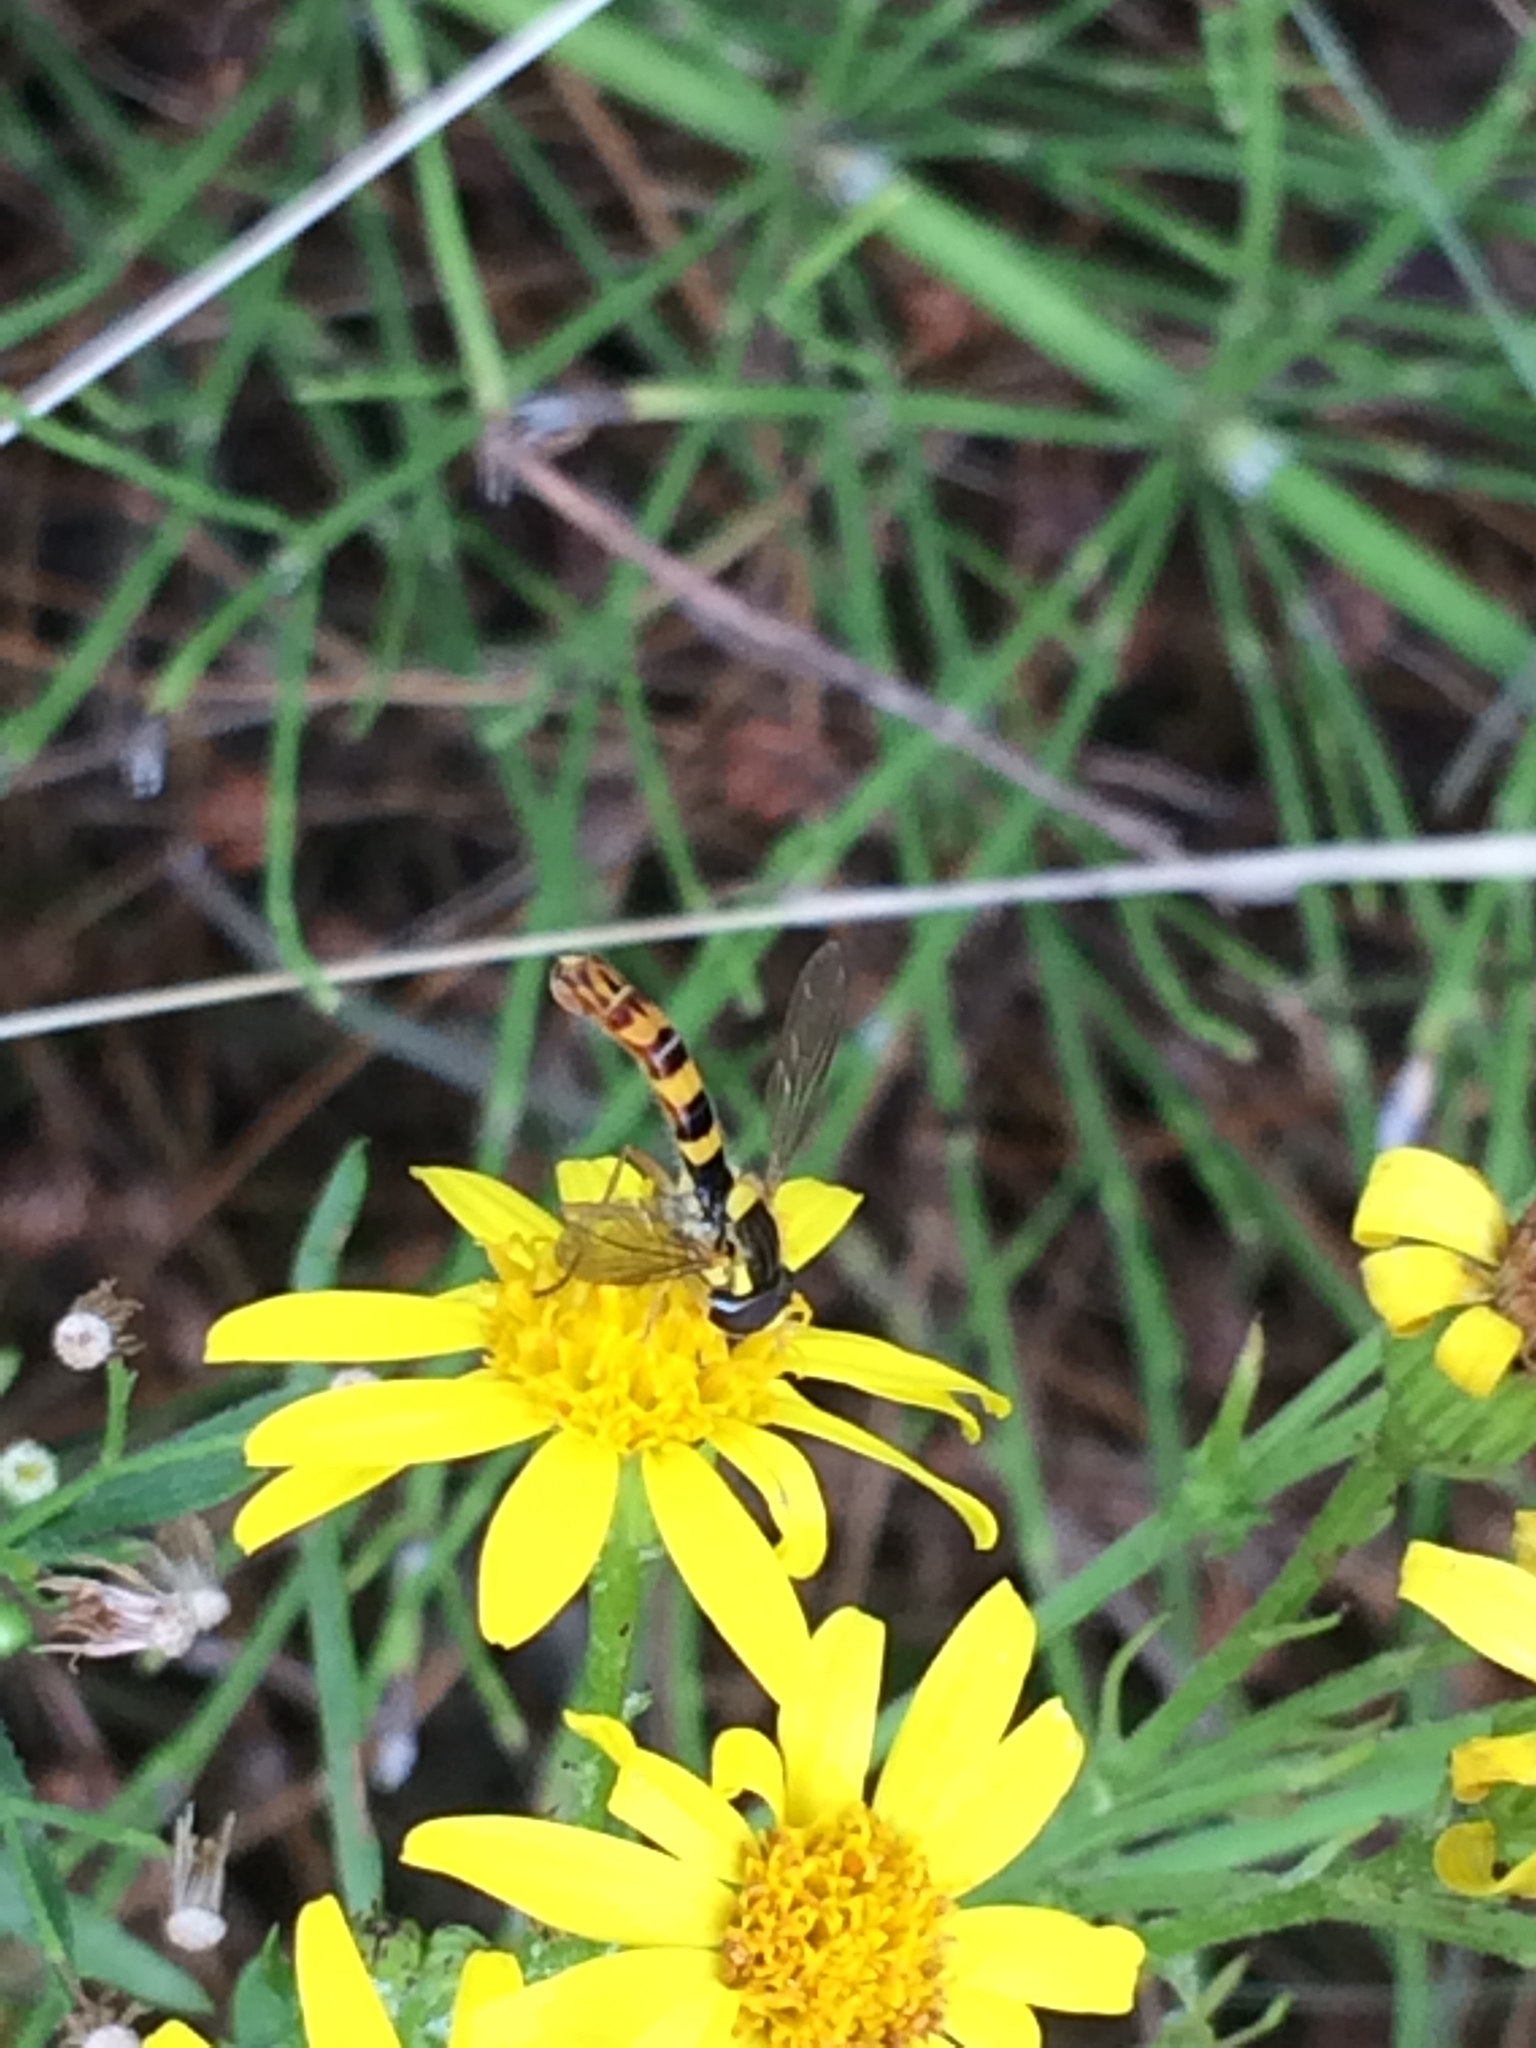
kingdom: Animalia
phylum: Arthropoda
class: Insecta
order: Diptera
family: Syrphidae
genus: Sphaerophoria
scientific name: Sphaerophoria scripta
